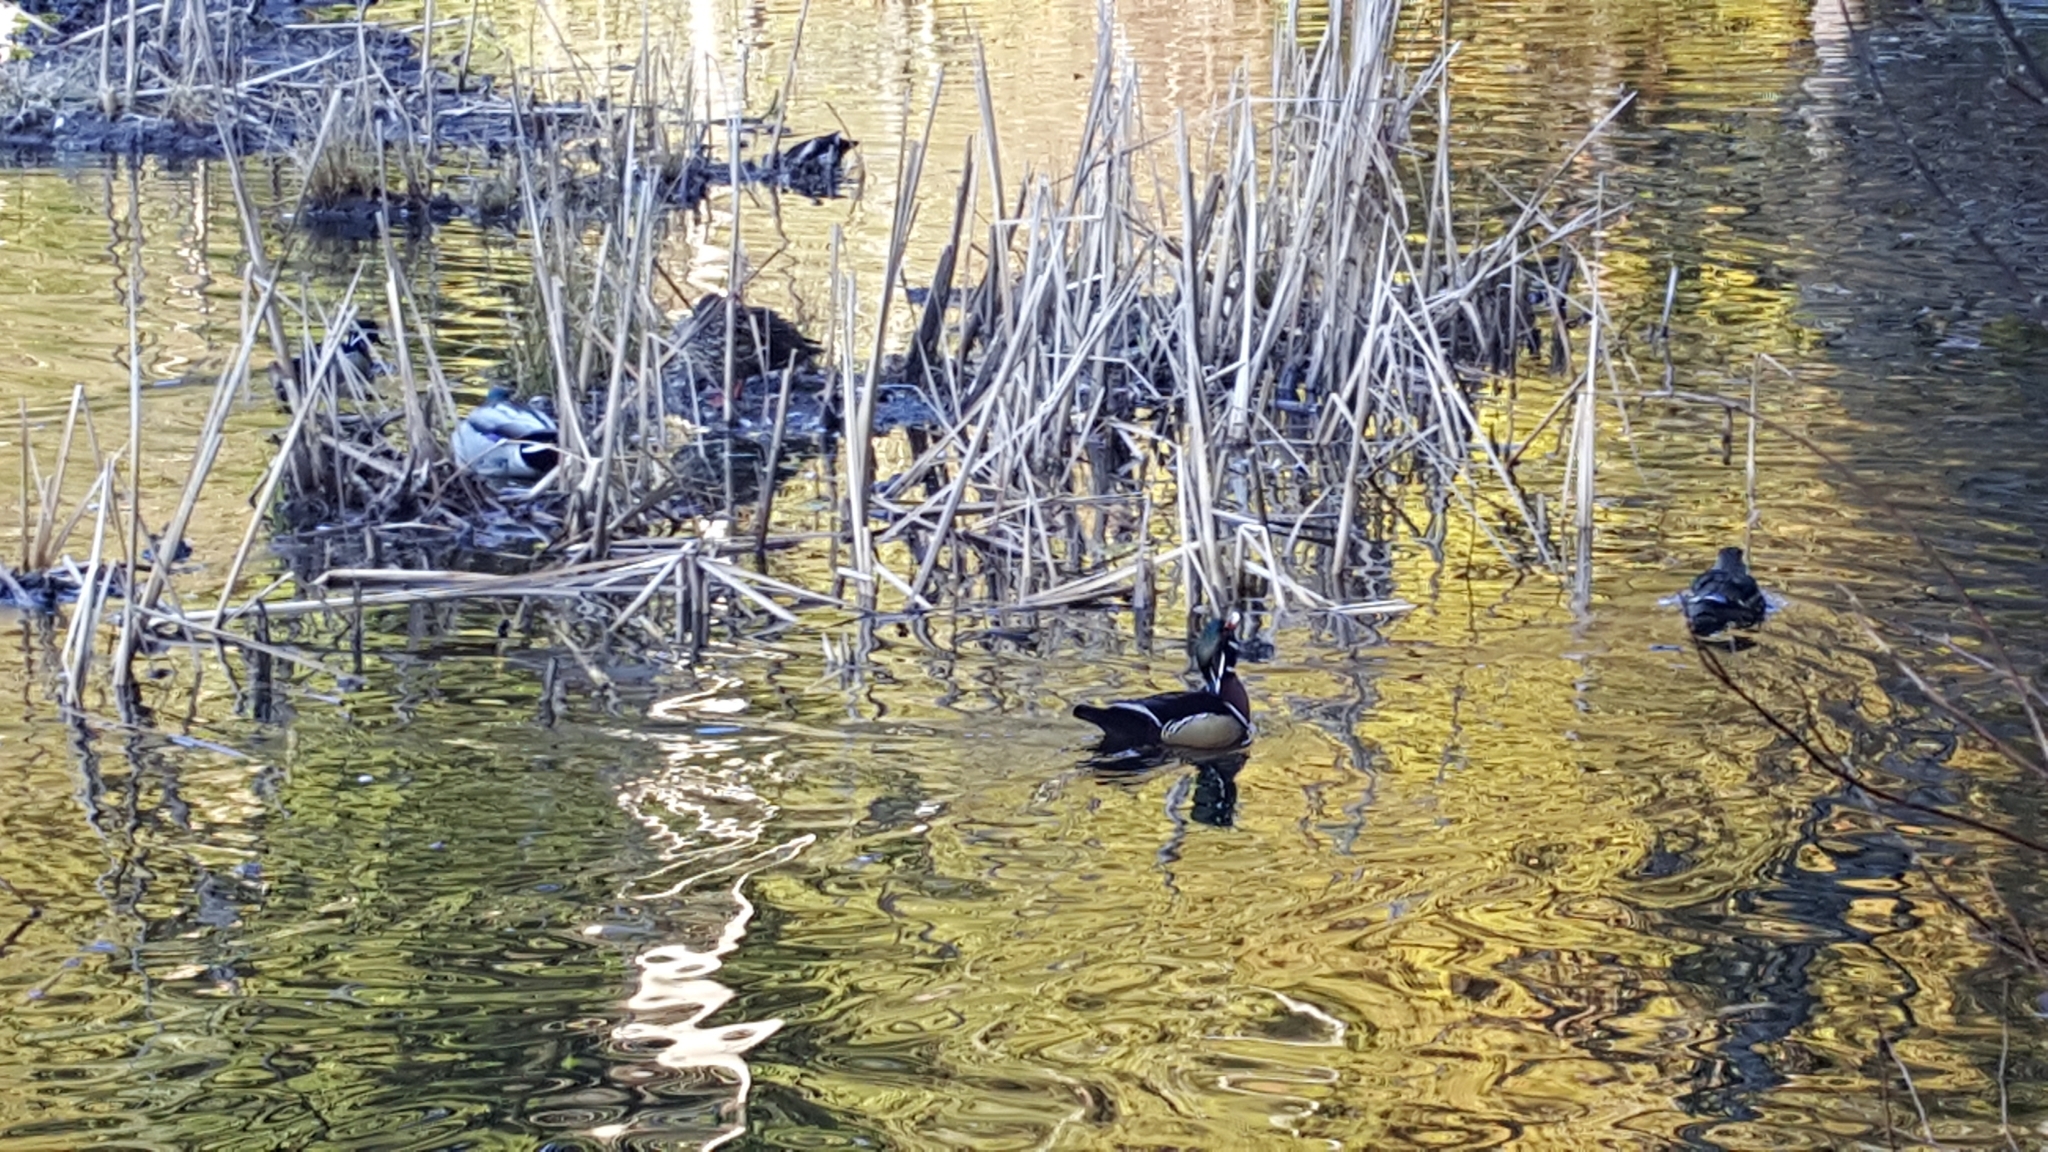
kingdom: Animalia
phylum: Chordata
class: Aves
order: Anseriformes
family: Anatidae
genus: Aix
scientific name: Aix sponsa
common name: Wood duck
